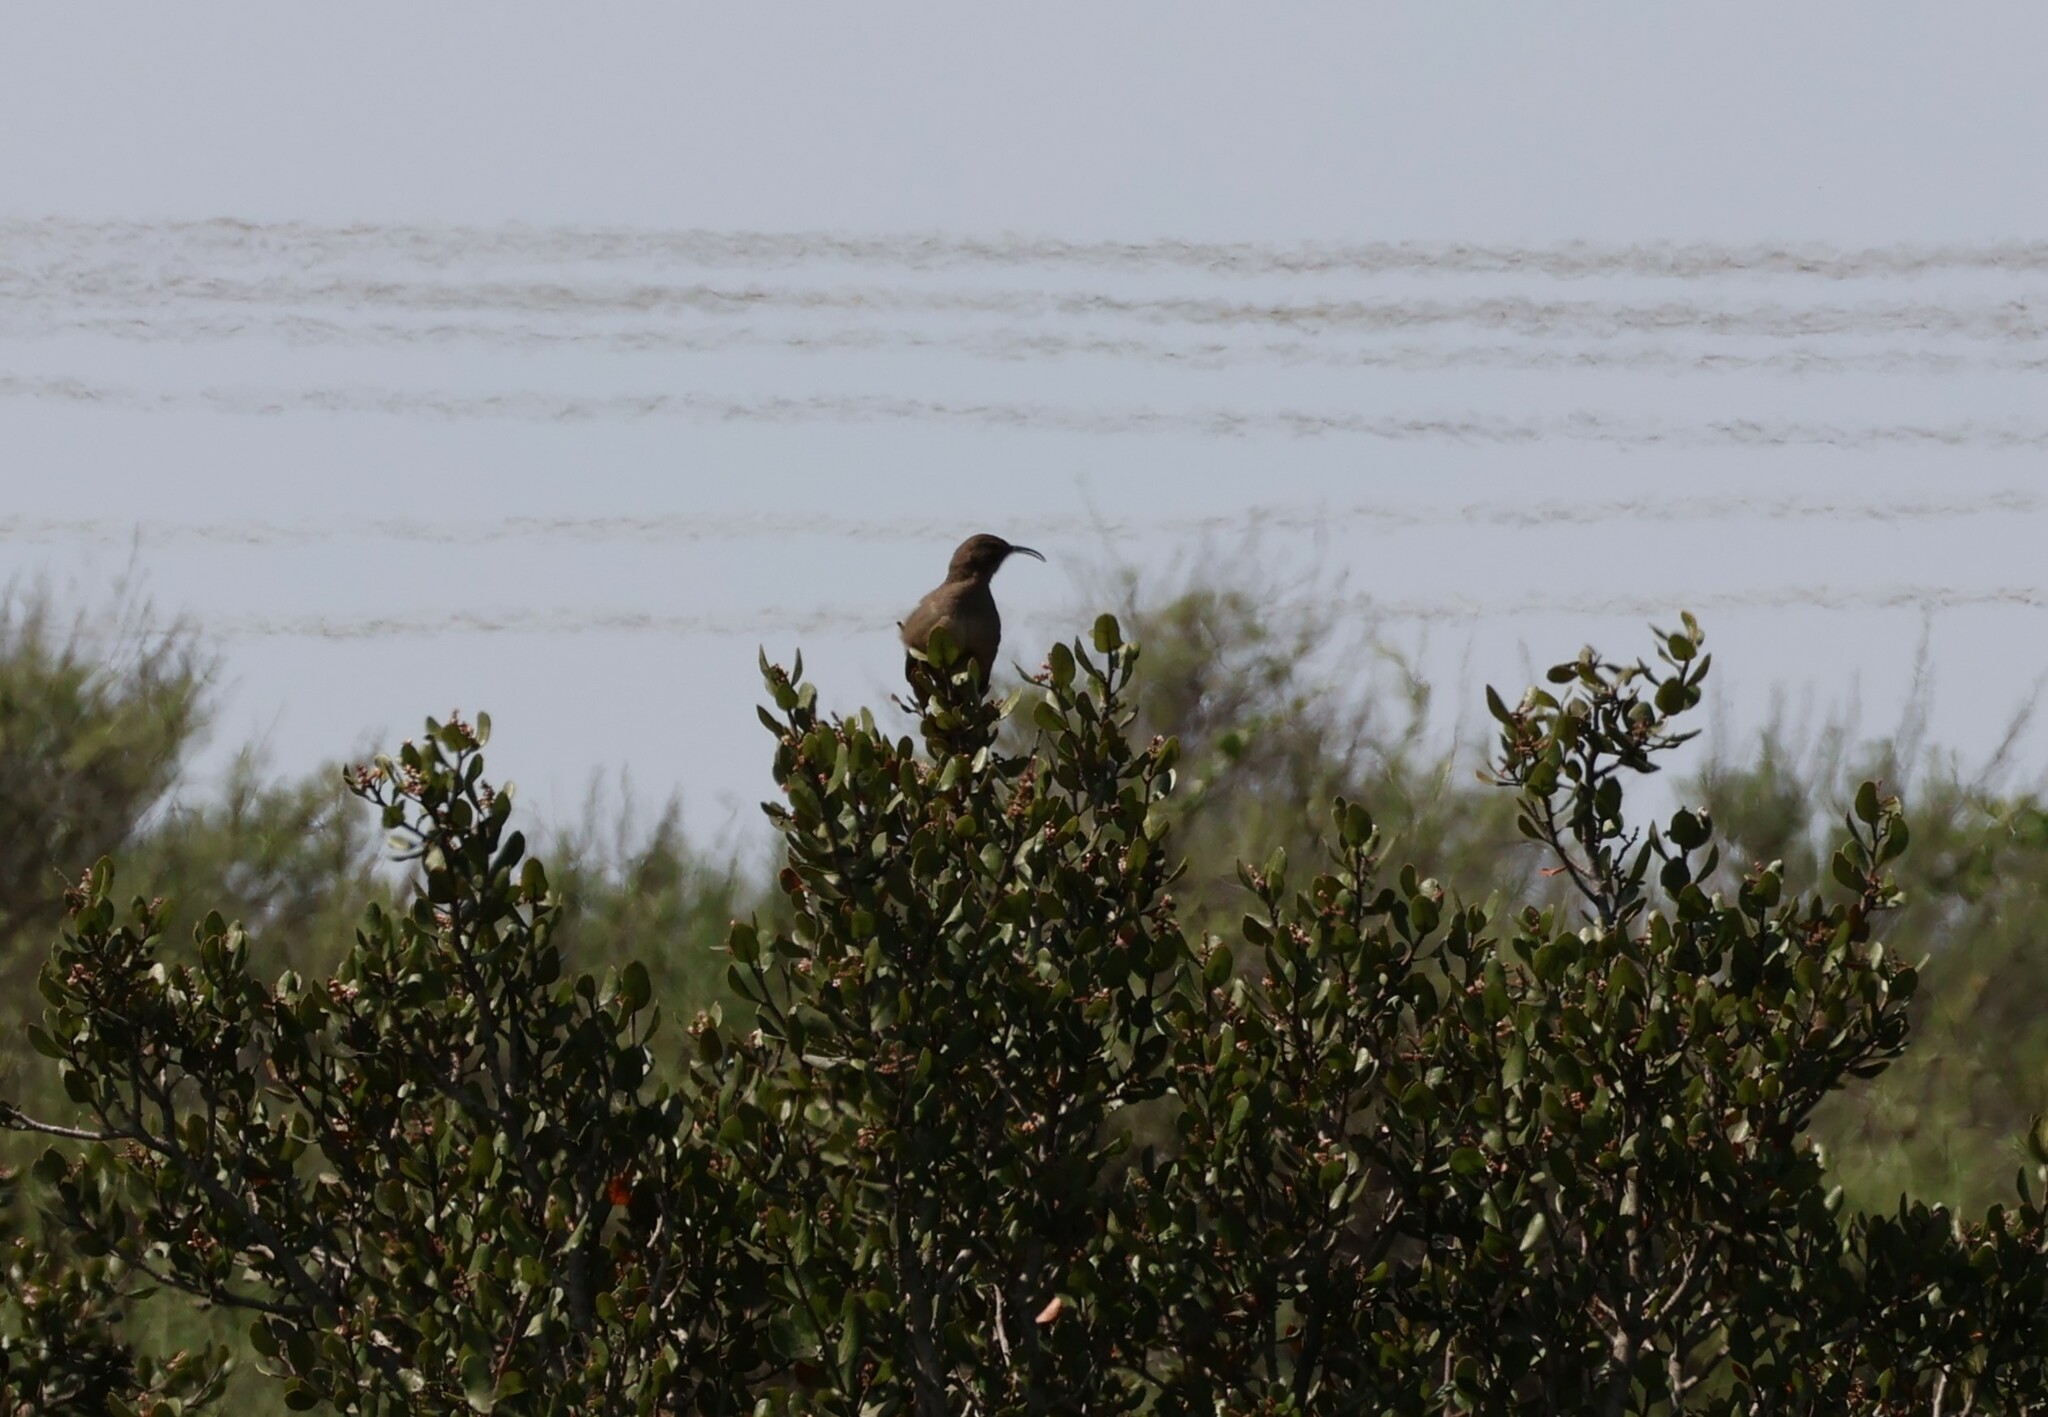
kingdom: Animalia
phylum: Chordata
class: Aves
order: Passeriformes
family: Mimidae
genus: Toxostoma
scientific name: Toxostoma redivivum
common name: California thrasher
